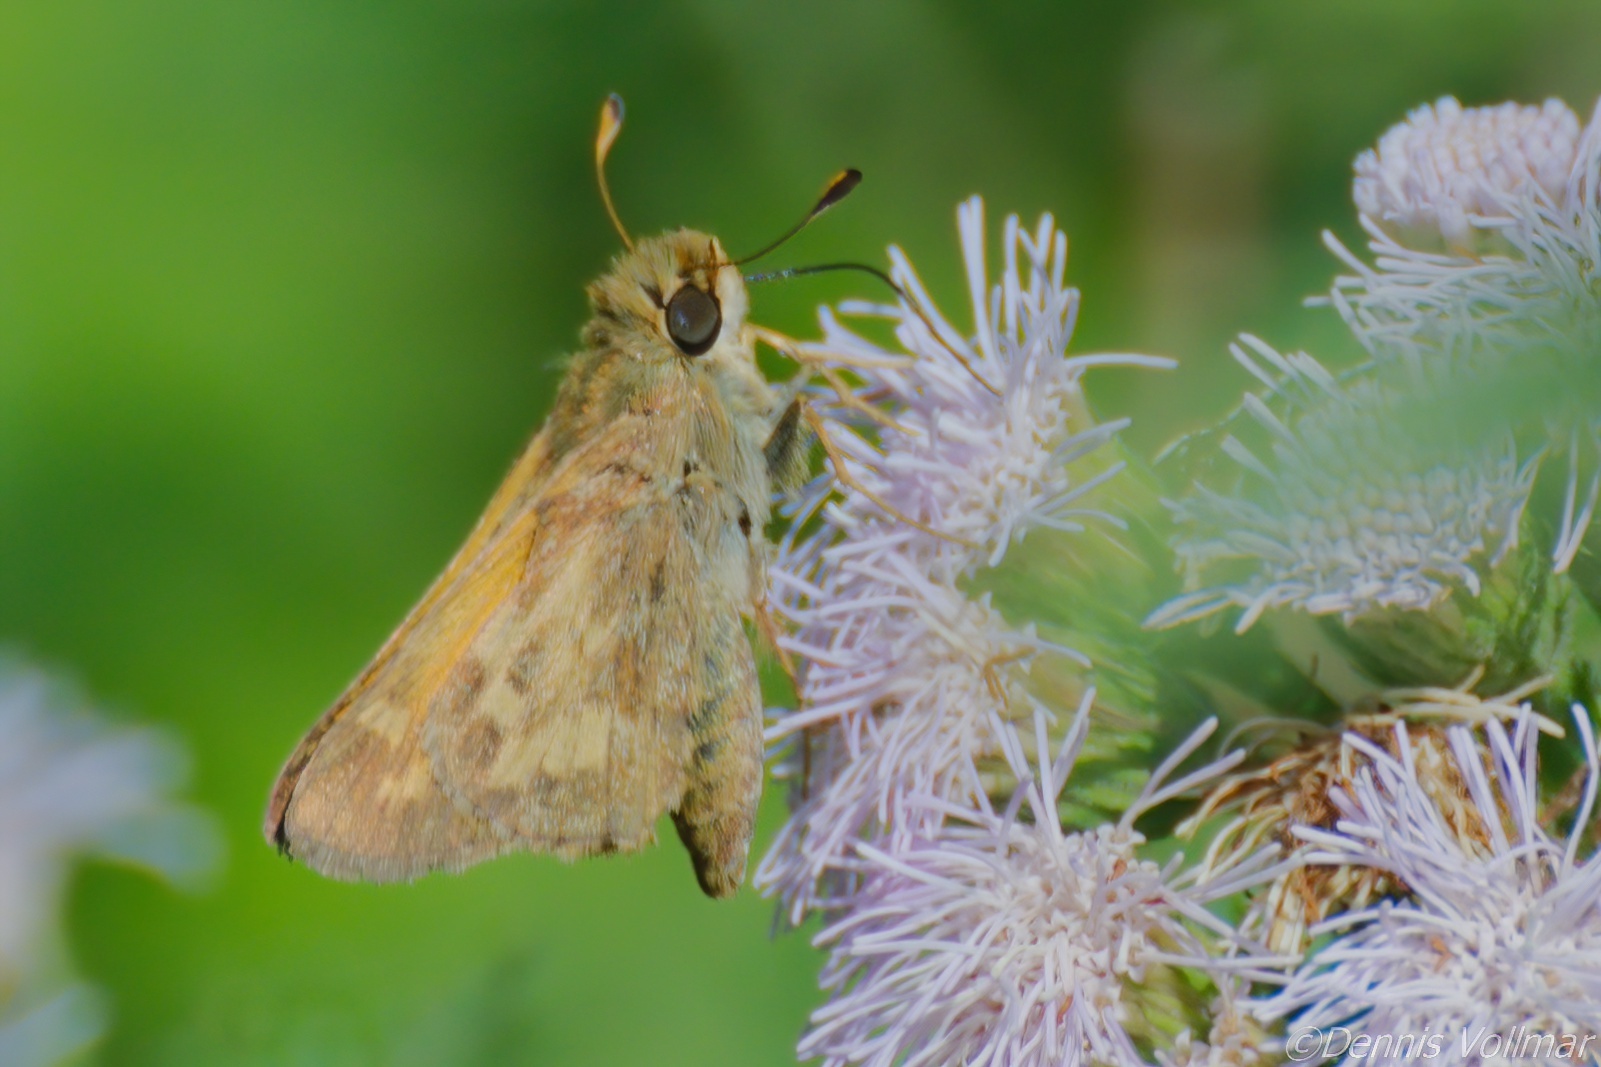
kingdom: Animalia
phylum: Arthropoda
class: Insecta
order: Lepidoptera
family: Hesperiidae
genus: Atalopedes
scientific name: Atalopedes
